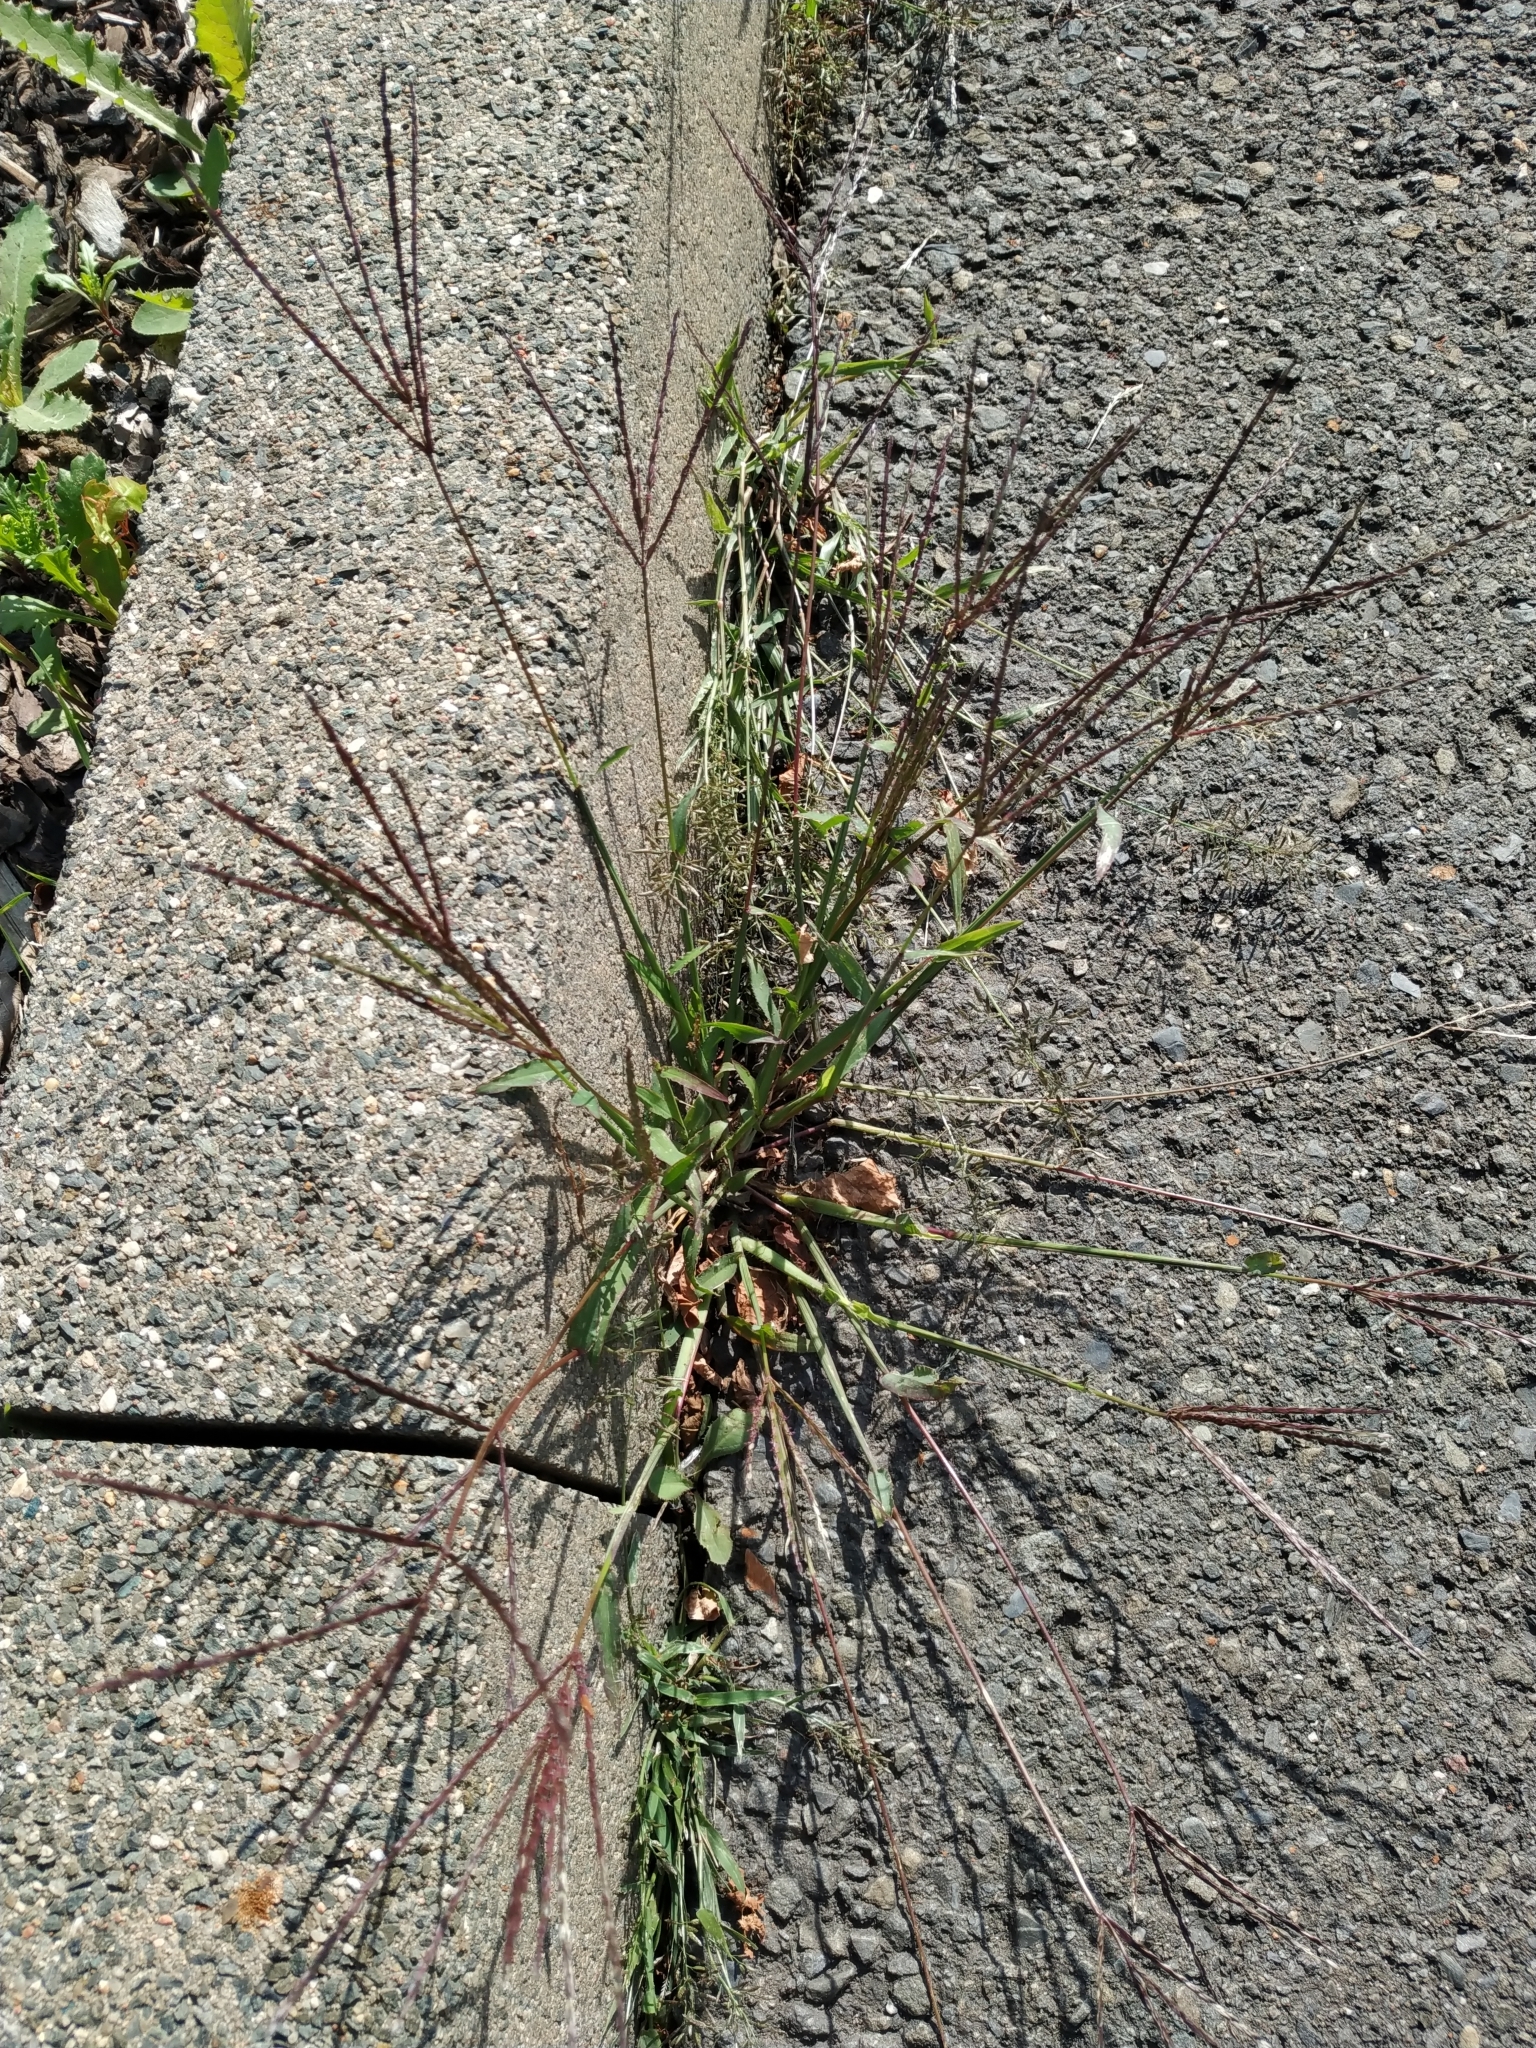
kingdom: Plantae
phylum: Tracheophyta
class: Liliopsida
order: Poales
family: Poaceae
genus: Digitaria
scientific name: Digitaria sanguinalis
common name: Hairy crabgrass
